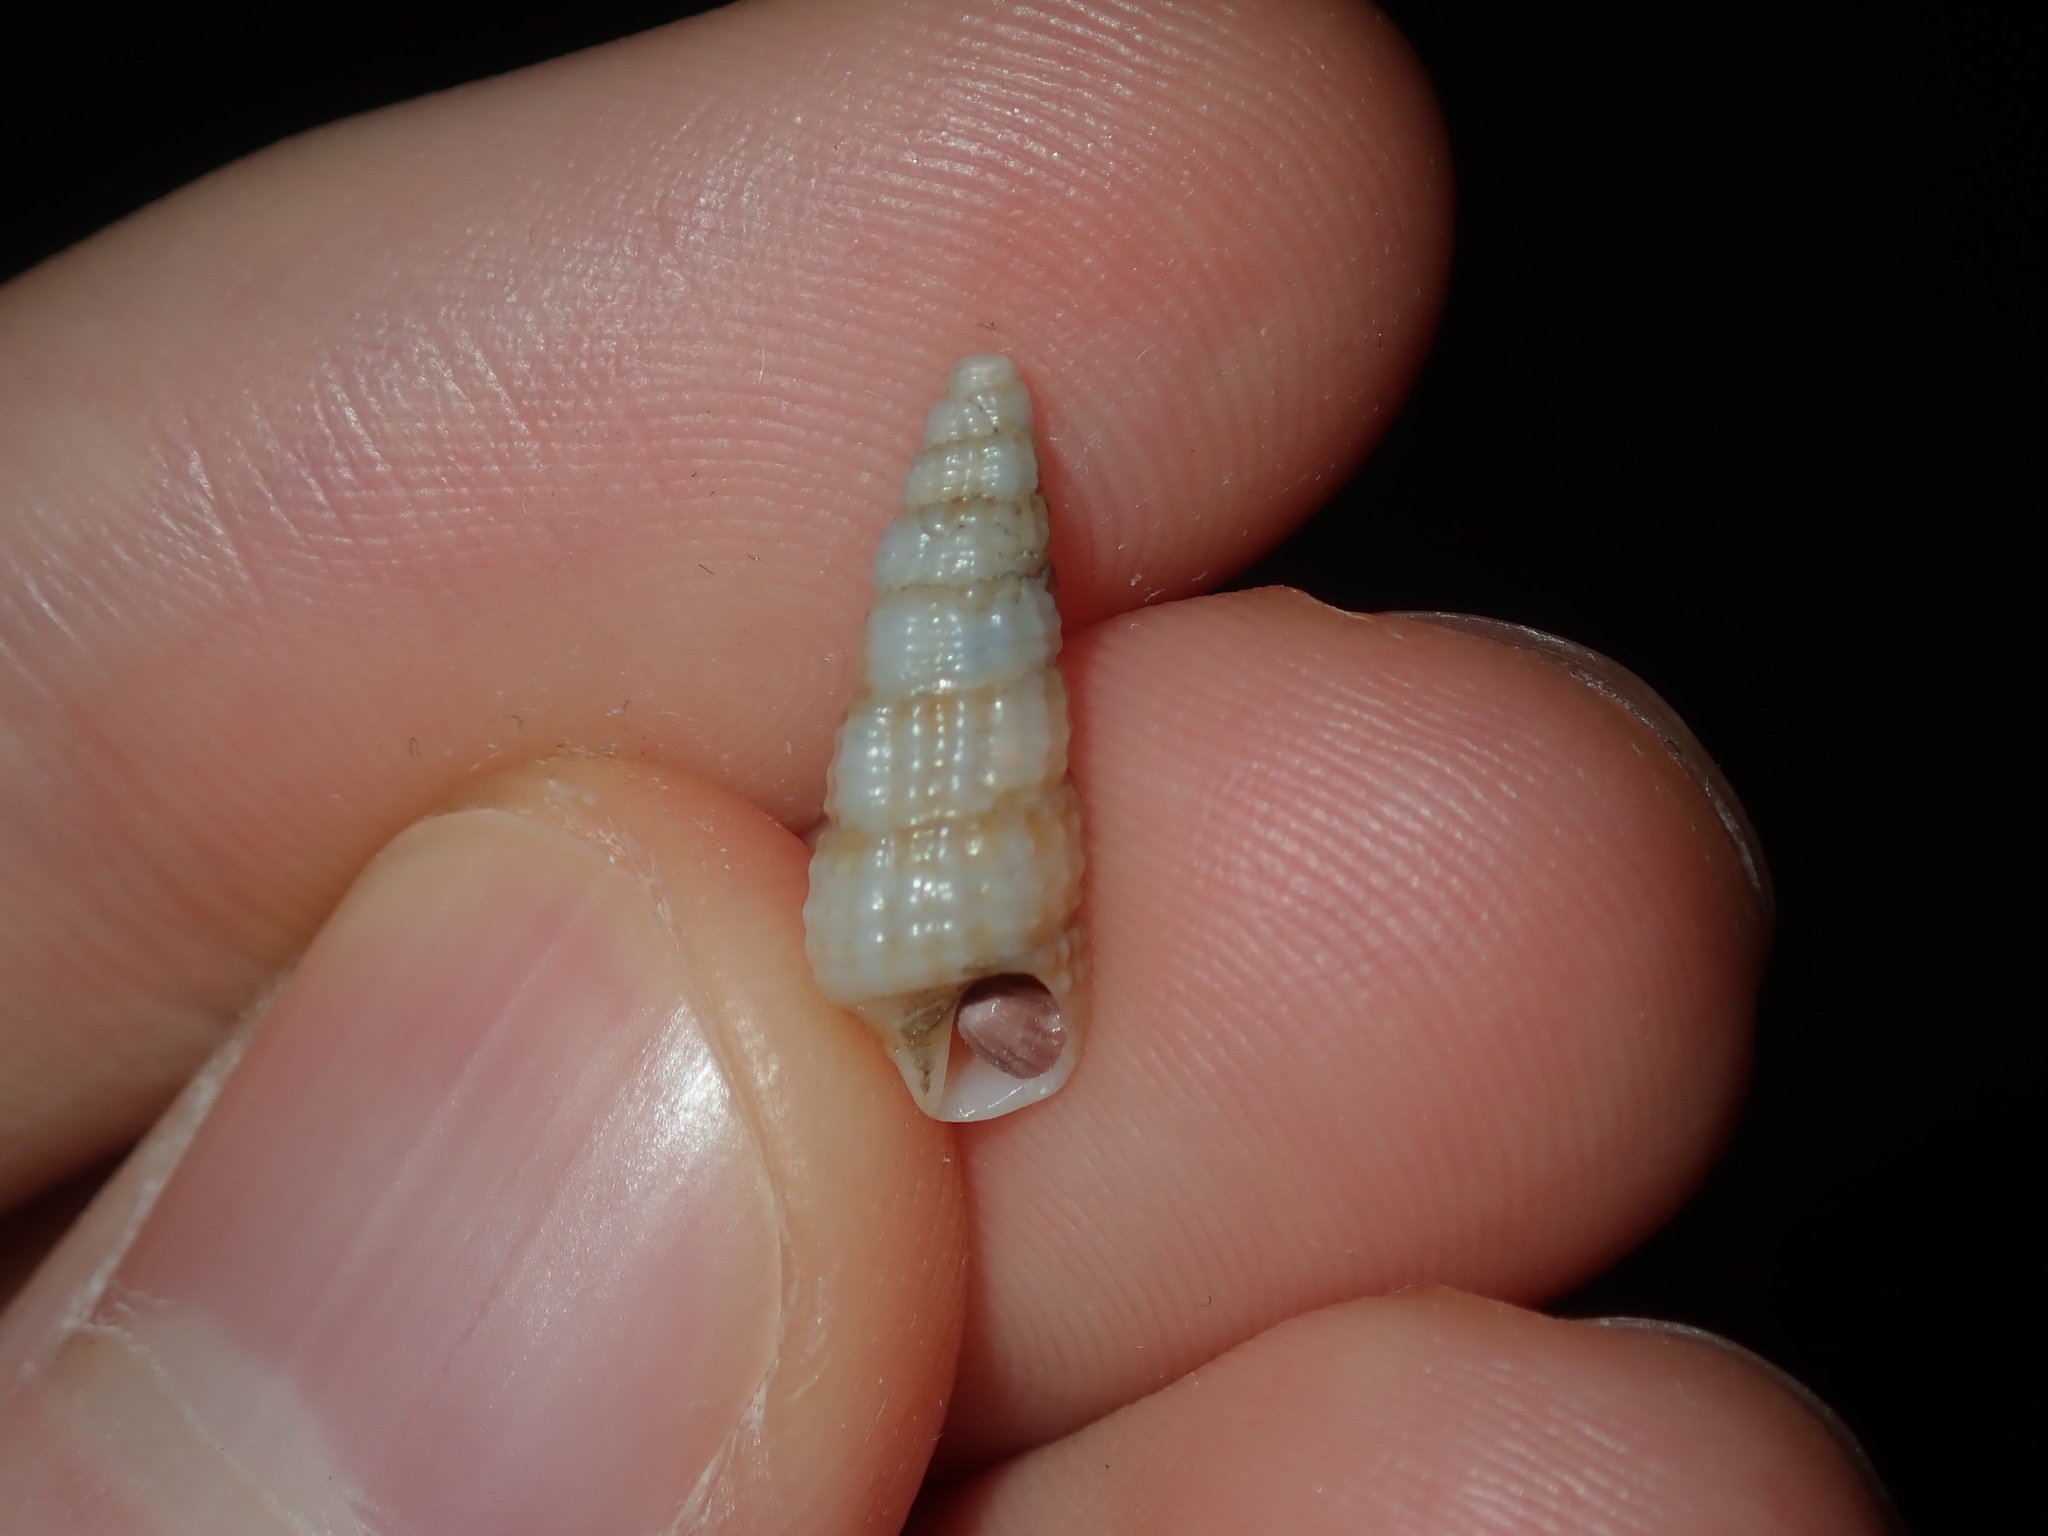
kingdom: Animalia
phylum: Mollusca
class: Gastropoda
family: Cerithiidae
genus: Cacozeliana
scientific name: Cacozeliana granarium
